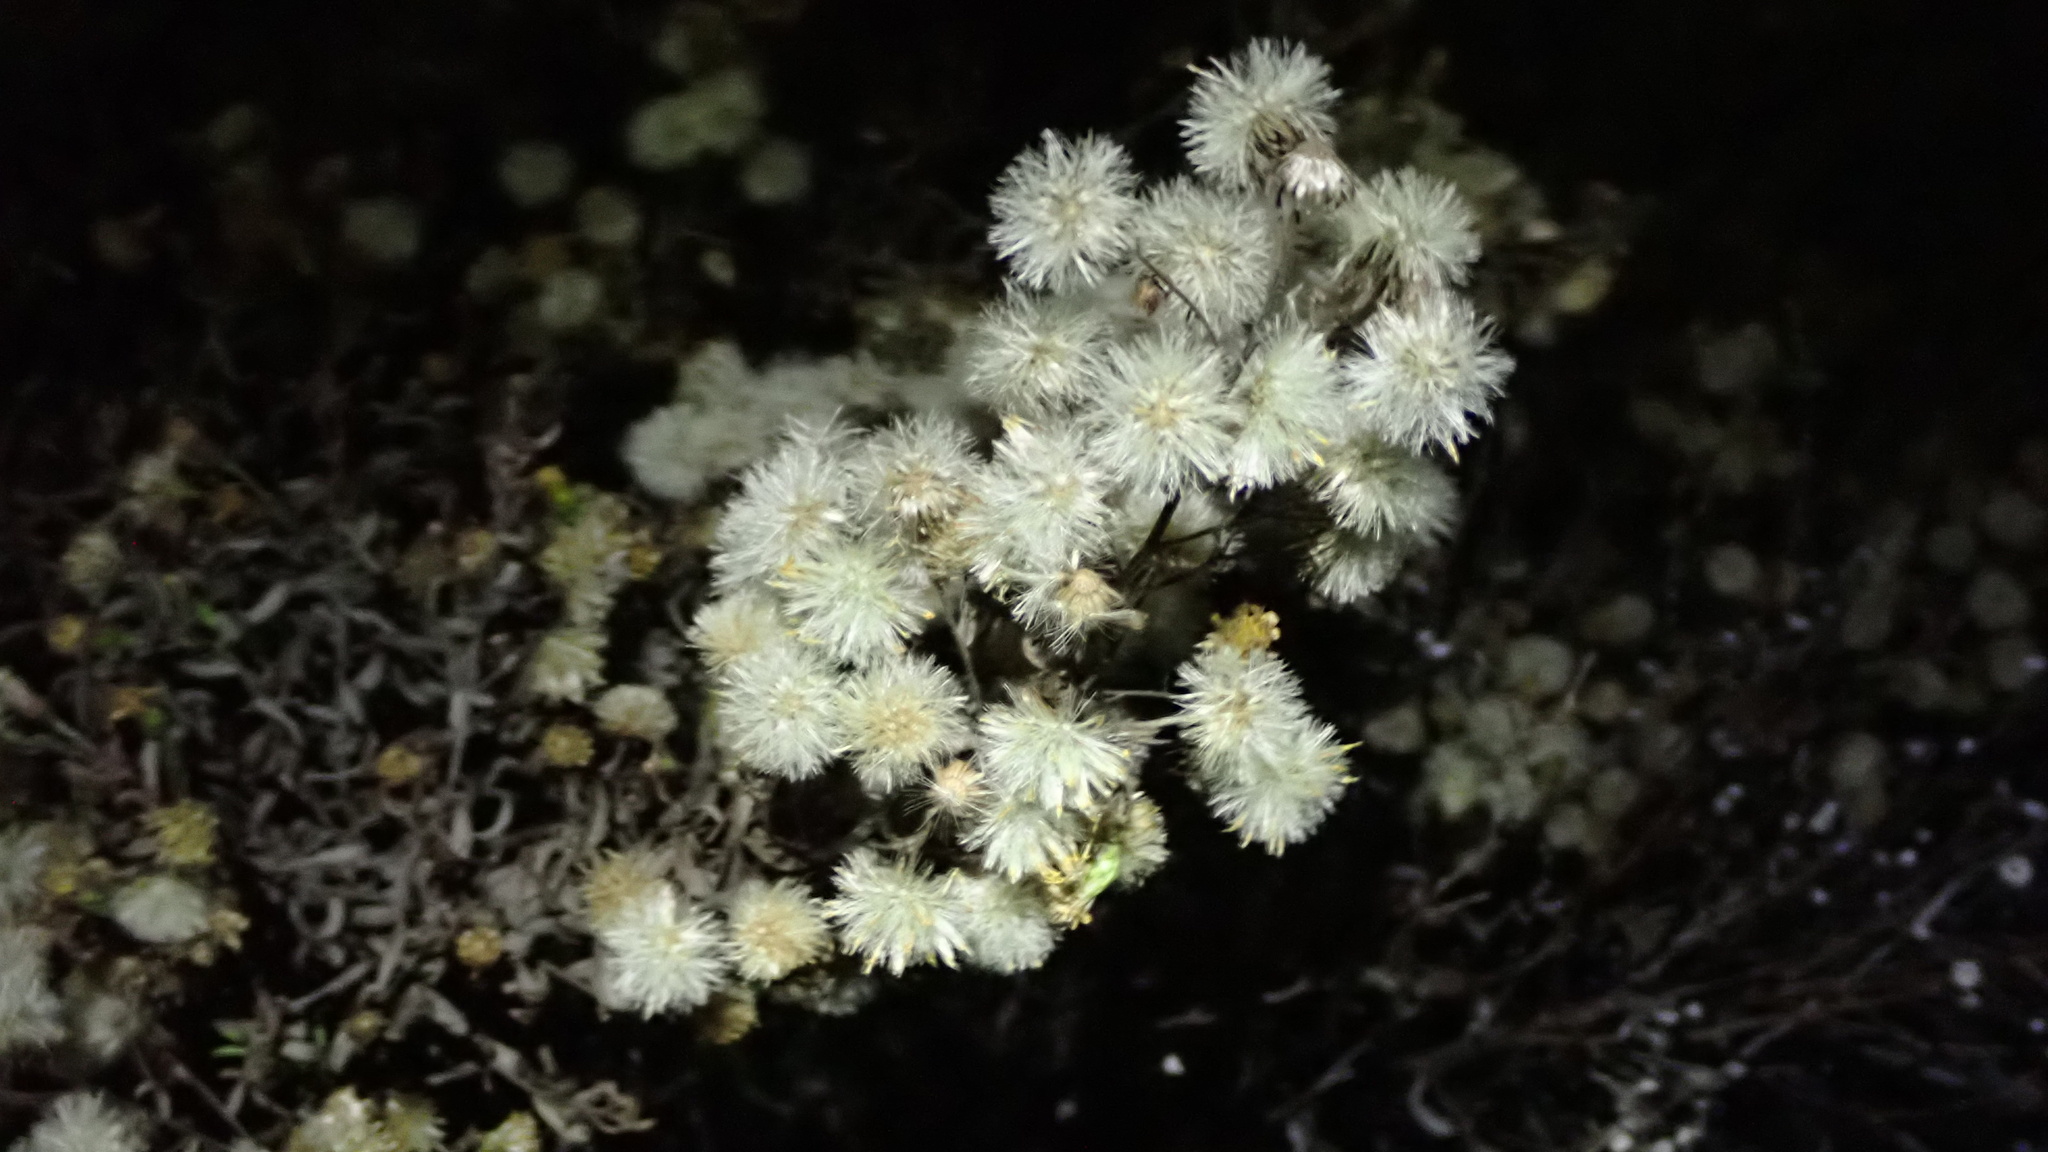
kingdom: Plantae
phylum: Tracheophyta
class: Magnoliopsida
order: Asterales
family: Asteraceae
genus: Dittrichia
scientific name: Dittrichia viscosa
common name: Woody fleabane
